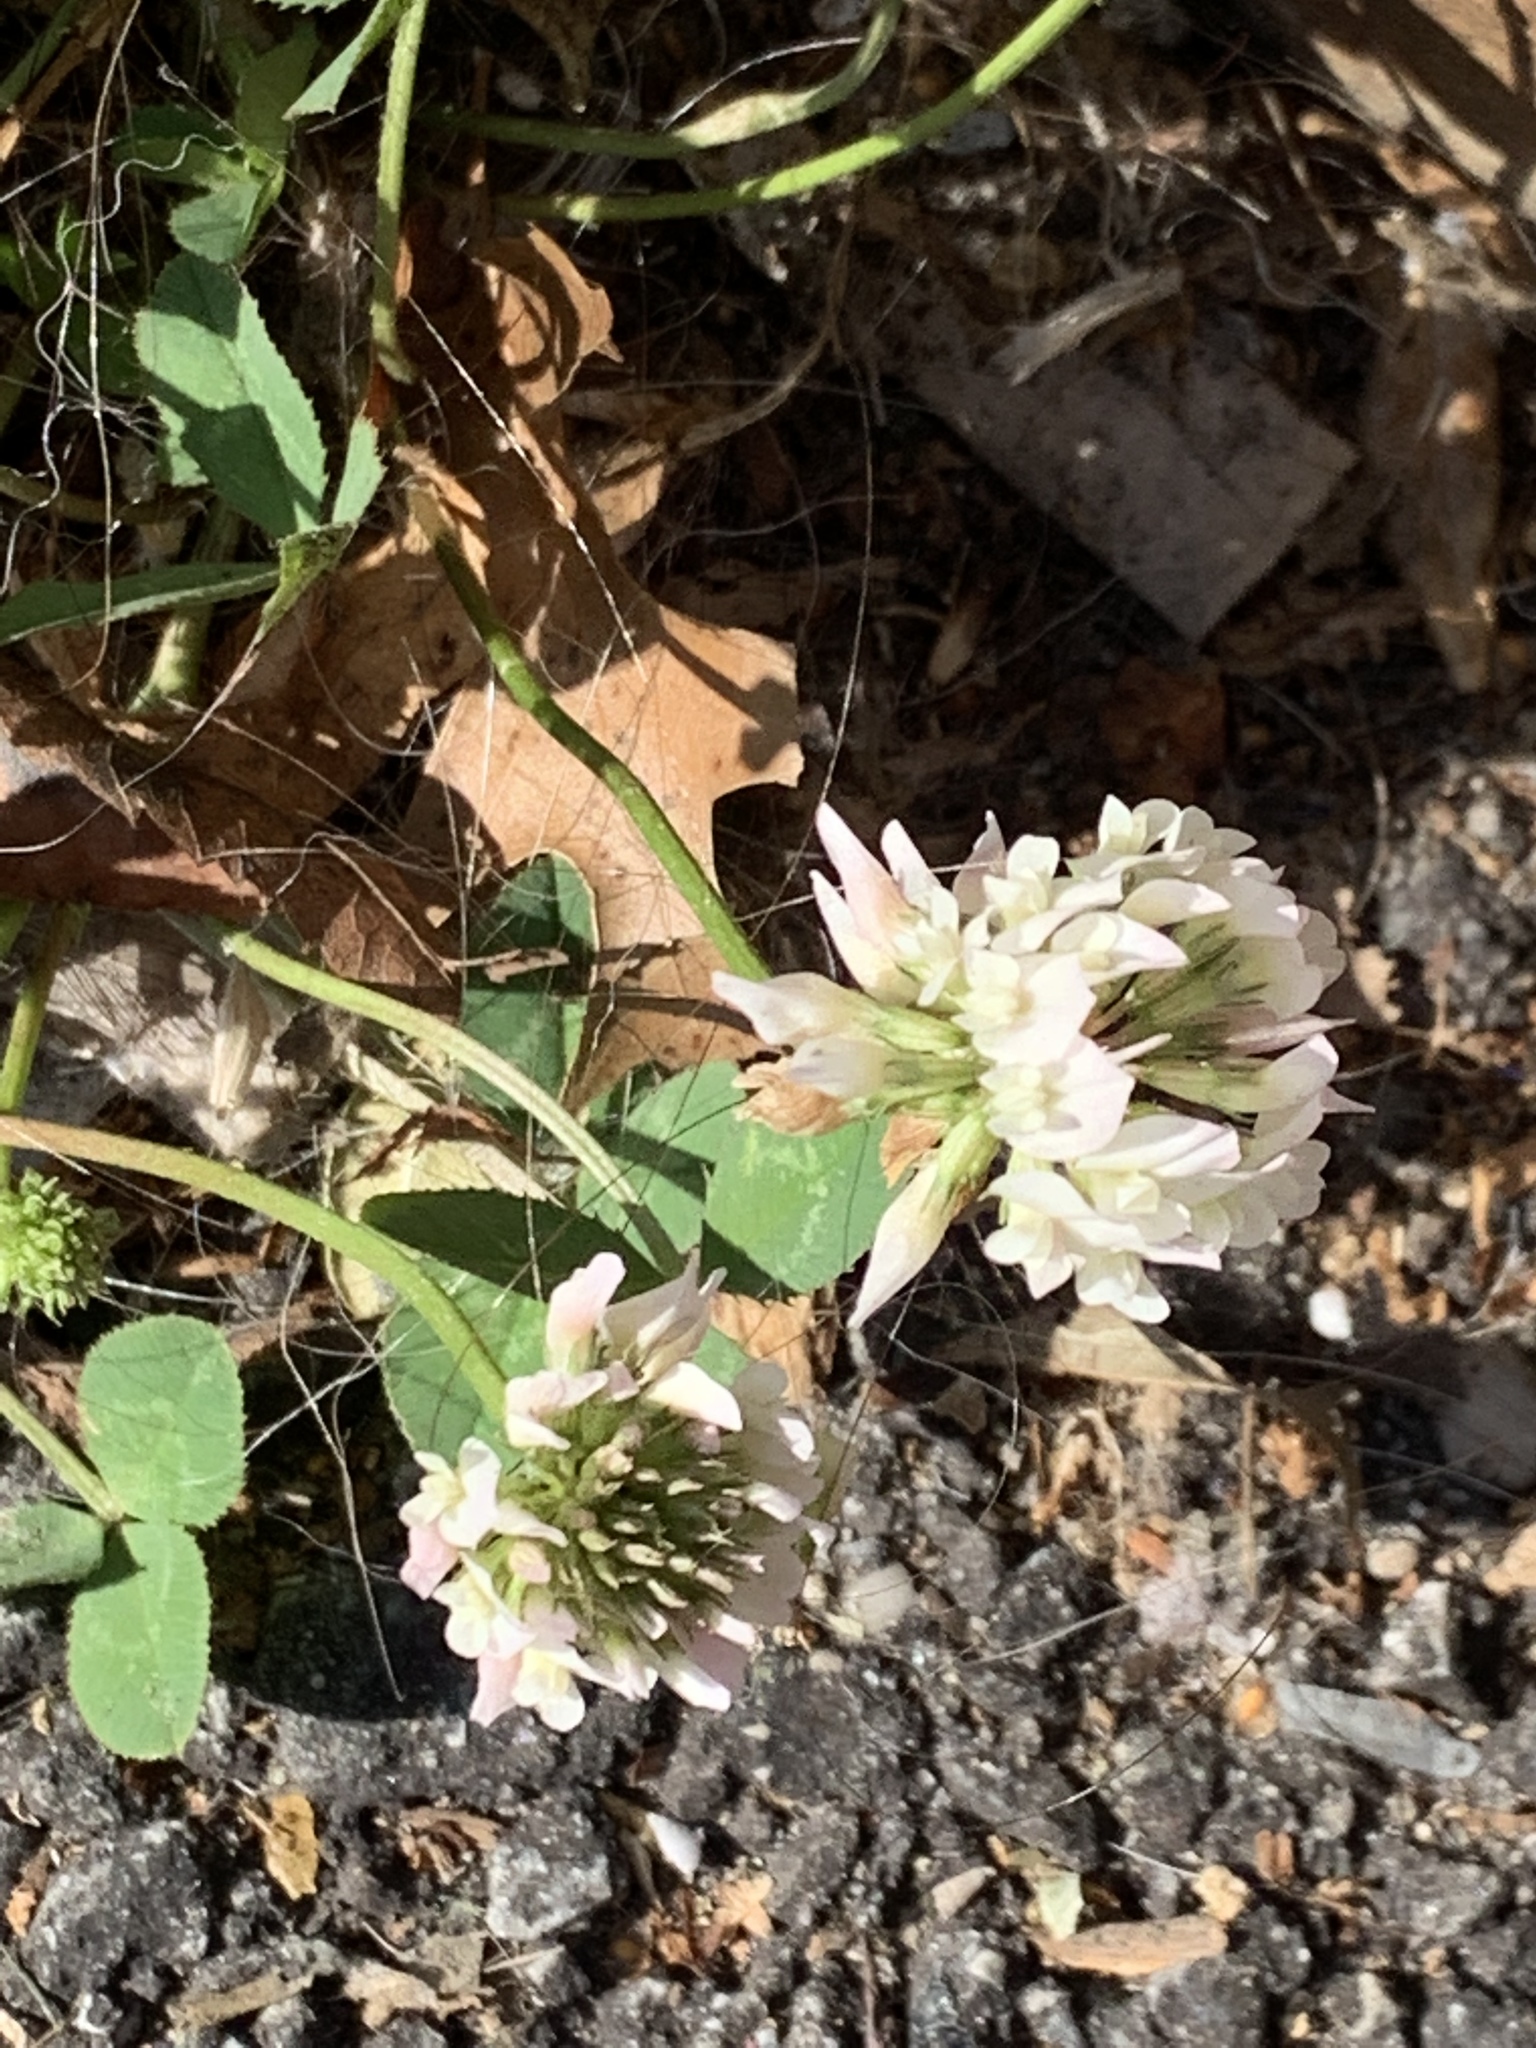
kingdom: Plantae
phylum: Tracheophyta
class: Magnoliopsida
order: Fabales
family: Fabaceae
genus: Trifolium
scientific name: Trifolium repens
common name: White clover
